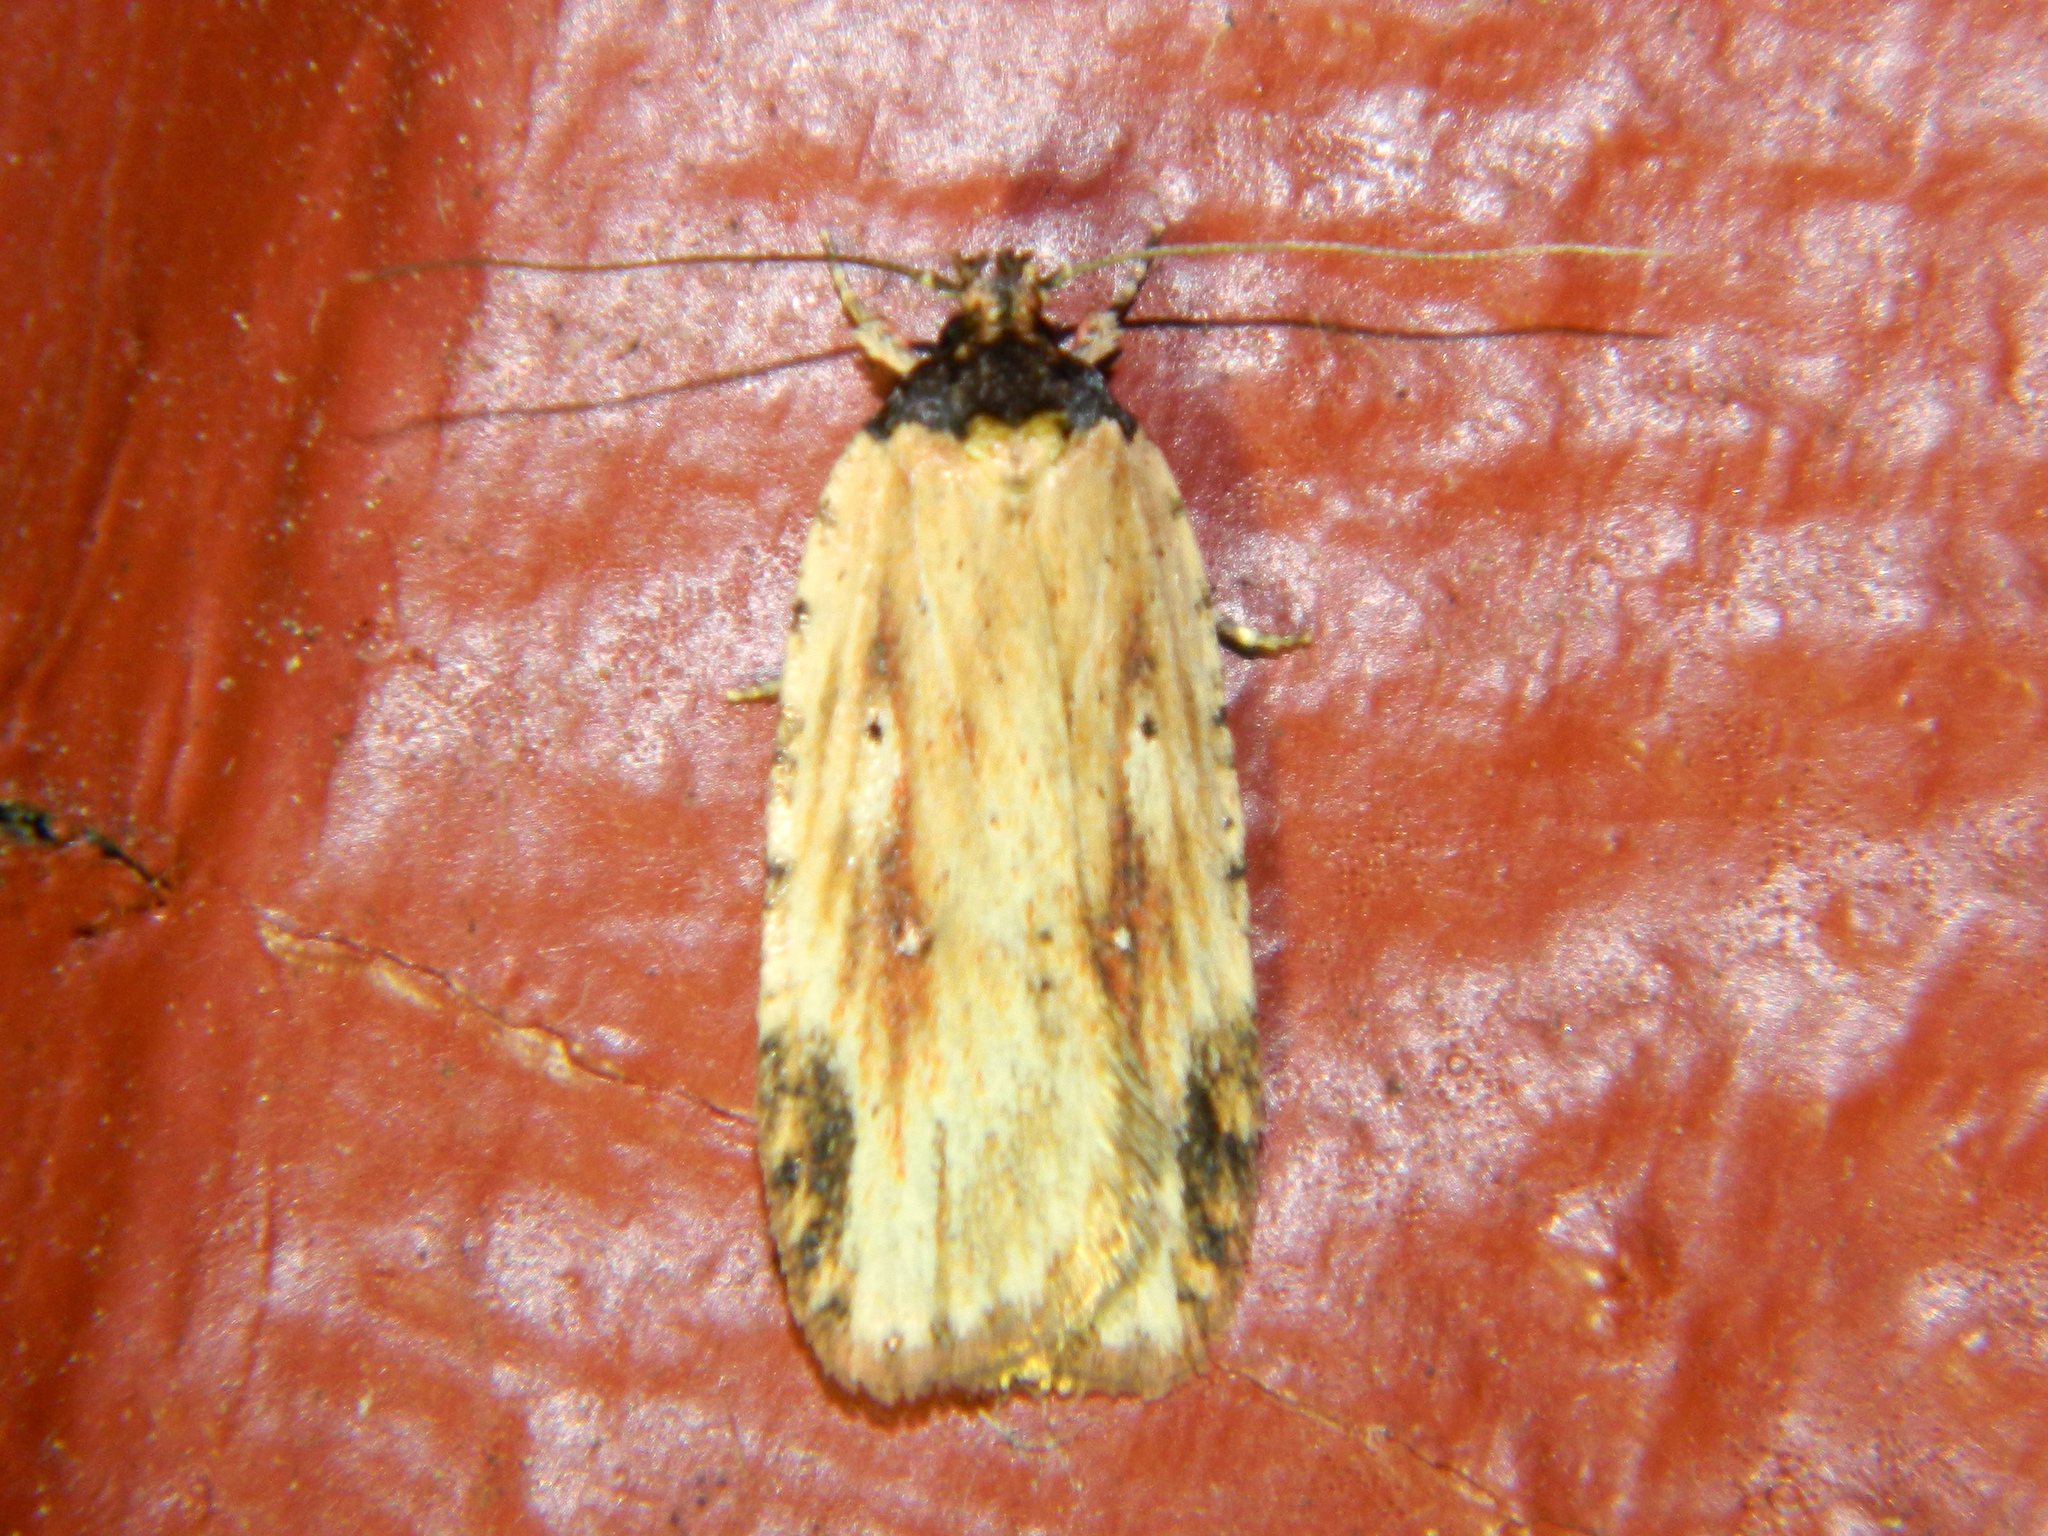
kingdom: Animalia
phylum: Arthropoda
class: Insecta
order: Lepidoptera
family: Depressariidae
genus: Agonopterix
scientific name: Agonopterix atrodorsella
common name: Beggartick leaffolder
